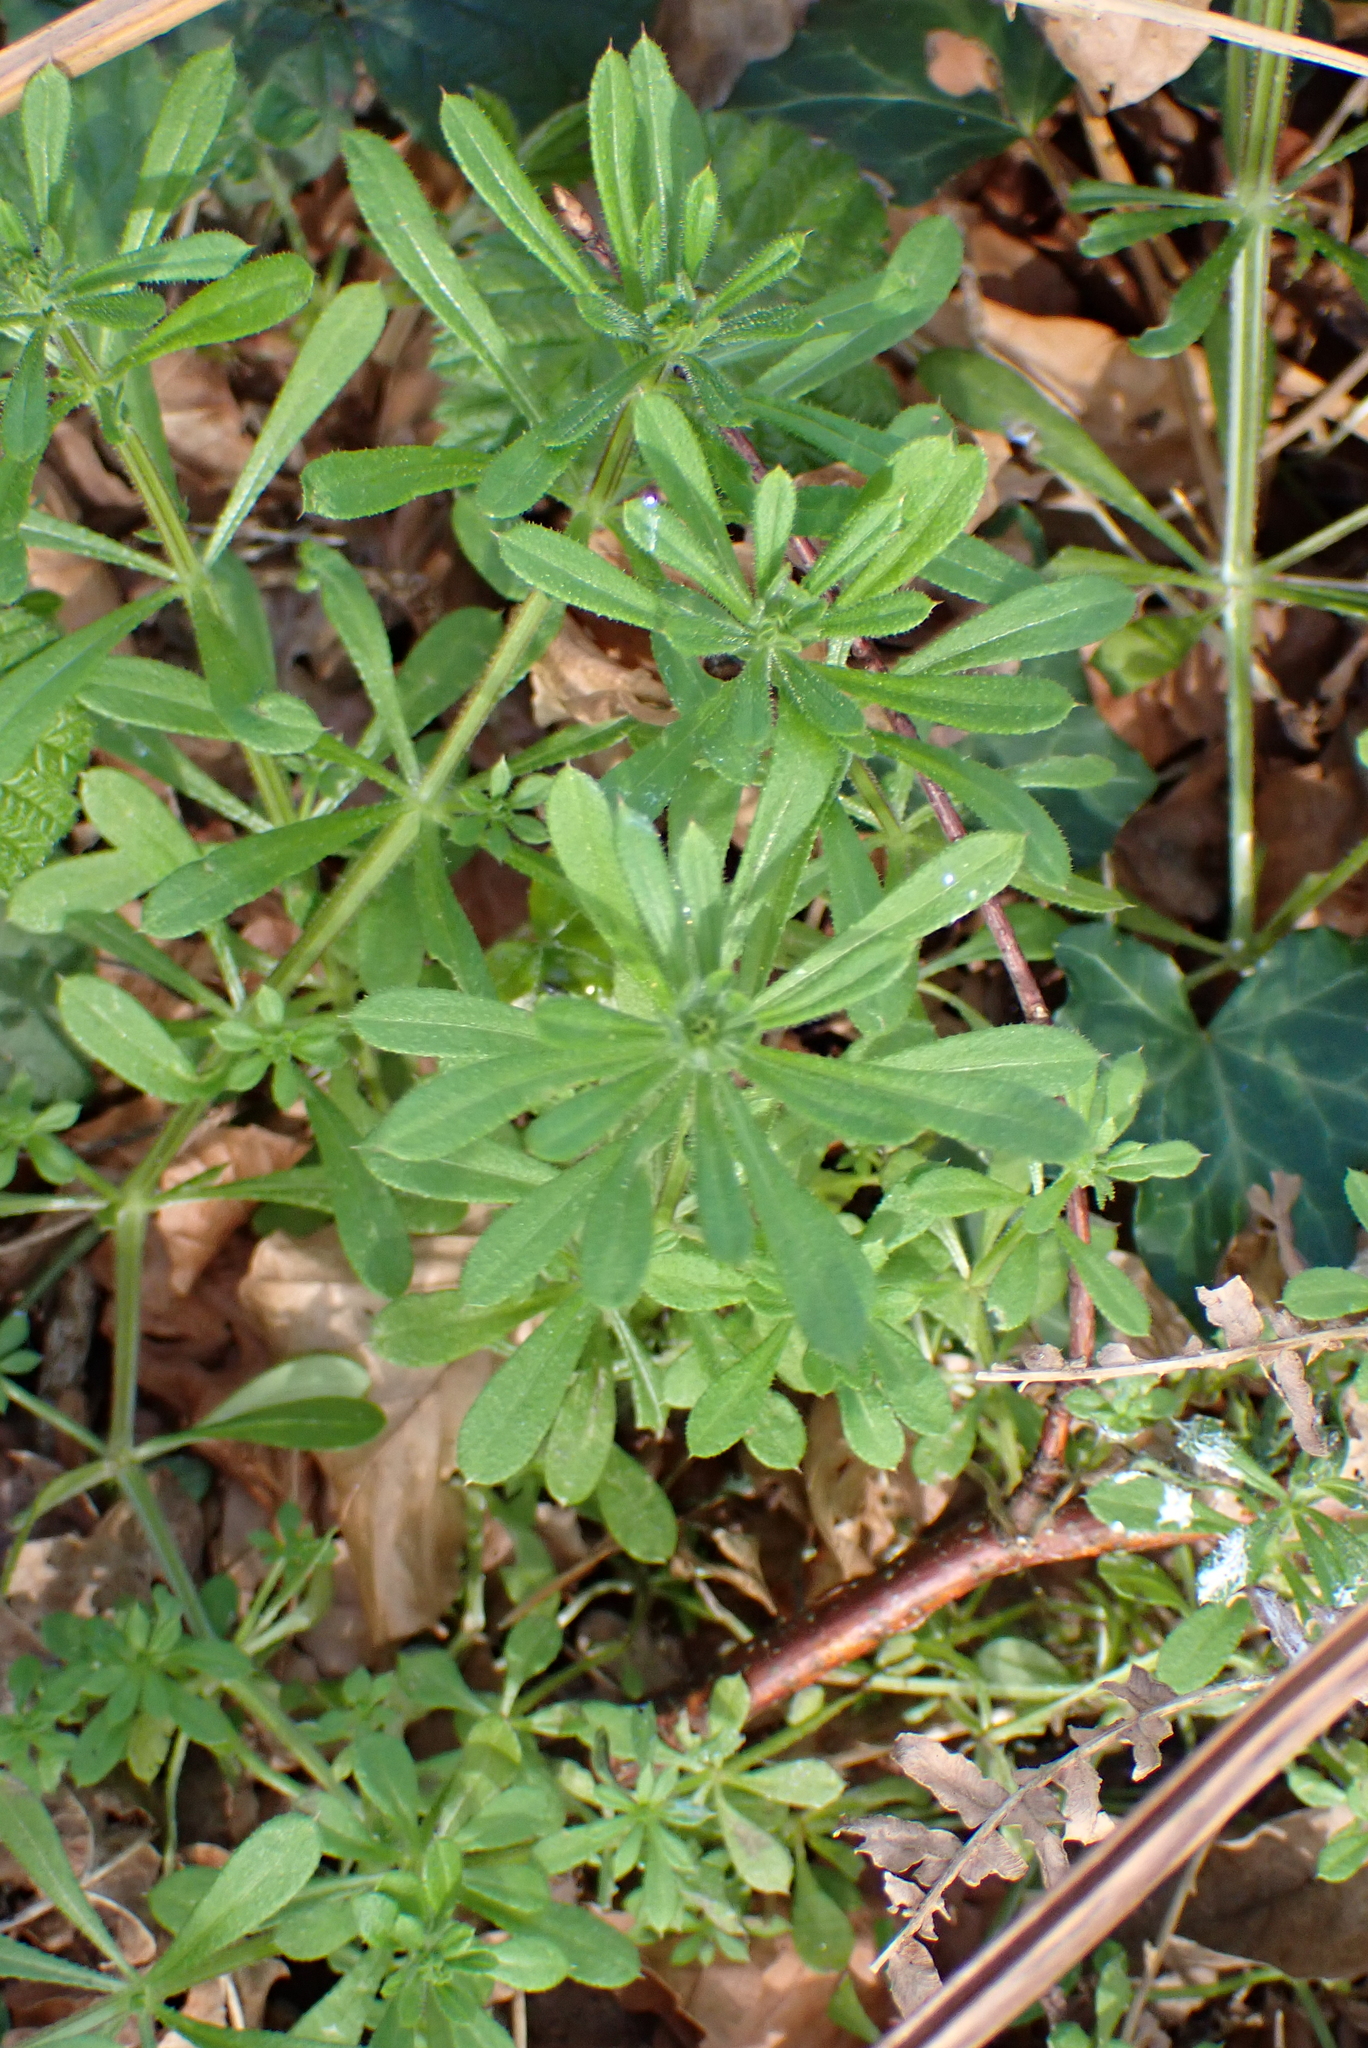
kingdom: Plantae
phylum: Tracheophyta
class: Magnoliopsida
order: Gentianales
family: Rubiaceae
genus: Galium
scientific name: Galium aparine
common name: Cleavers
